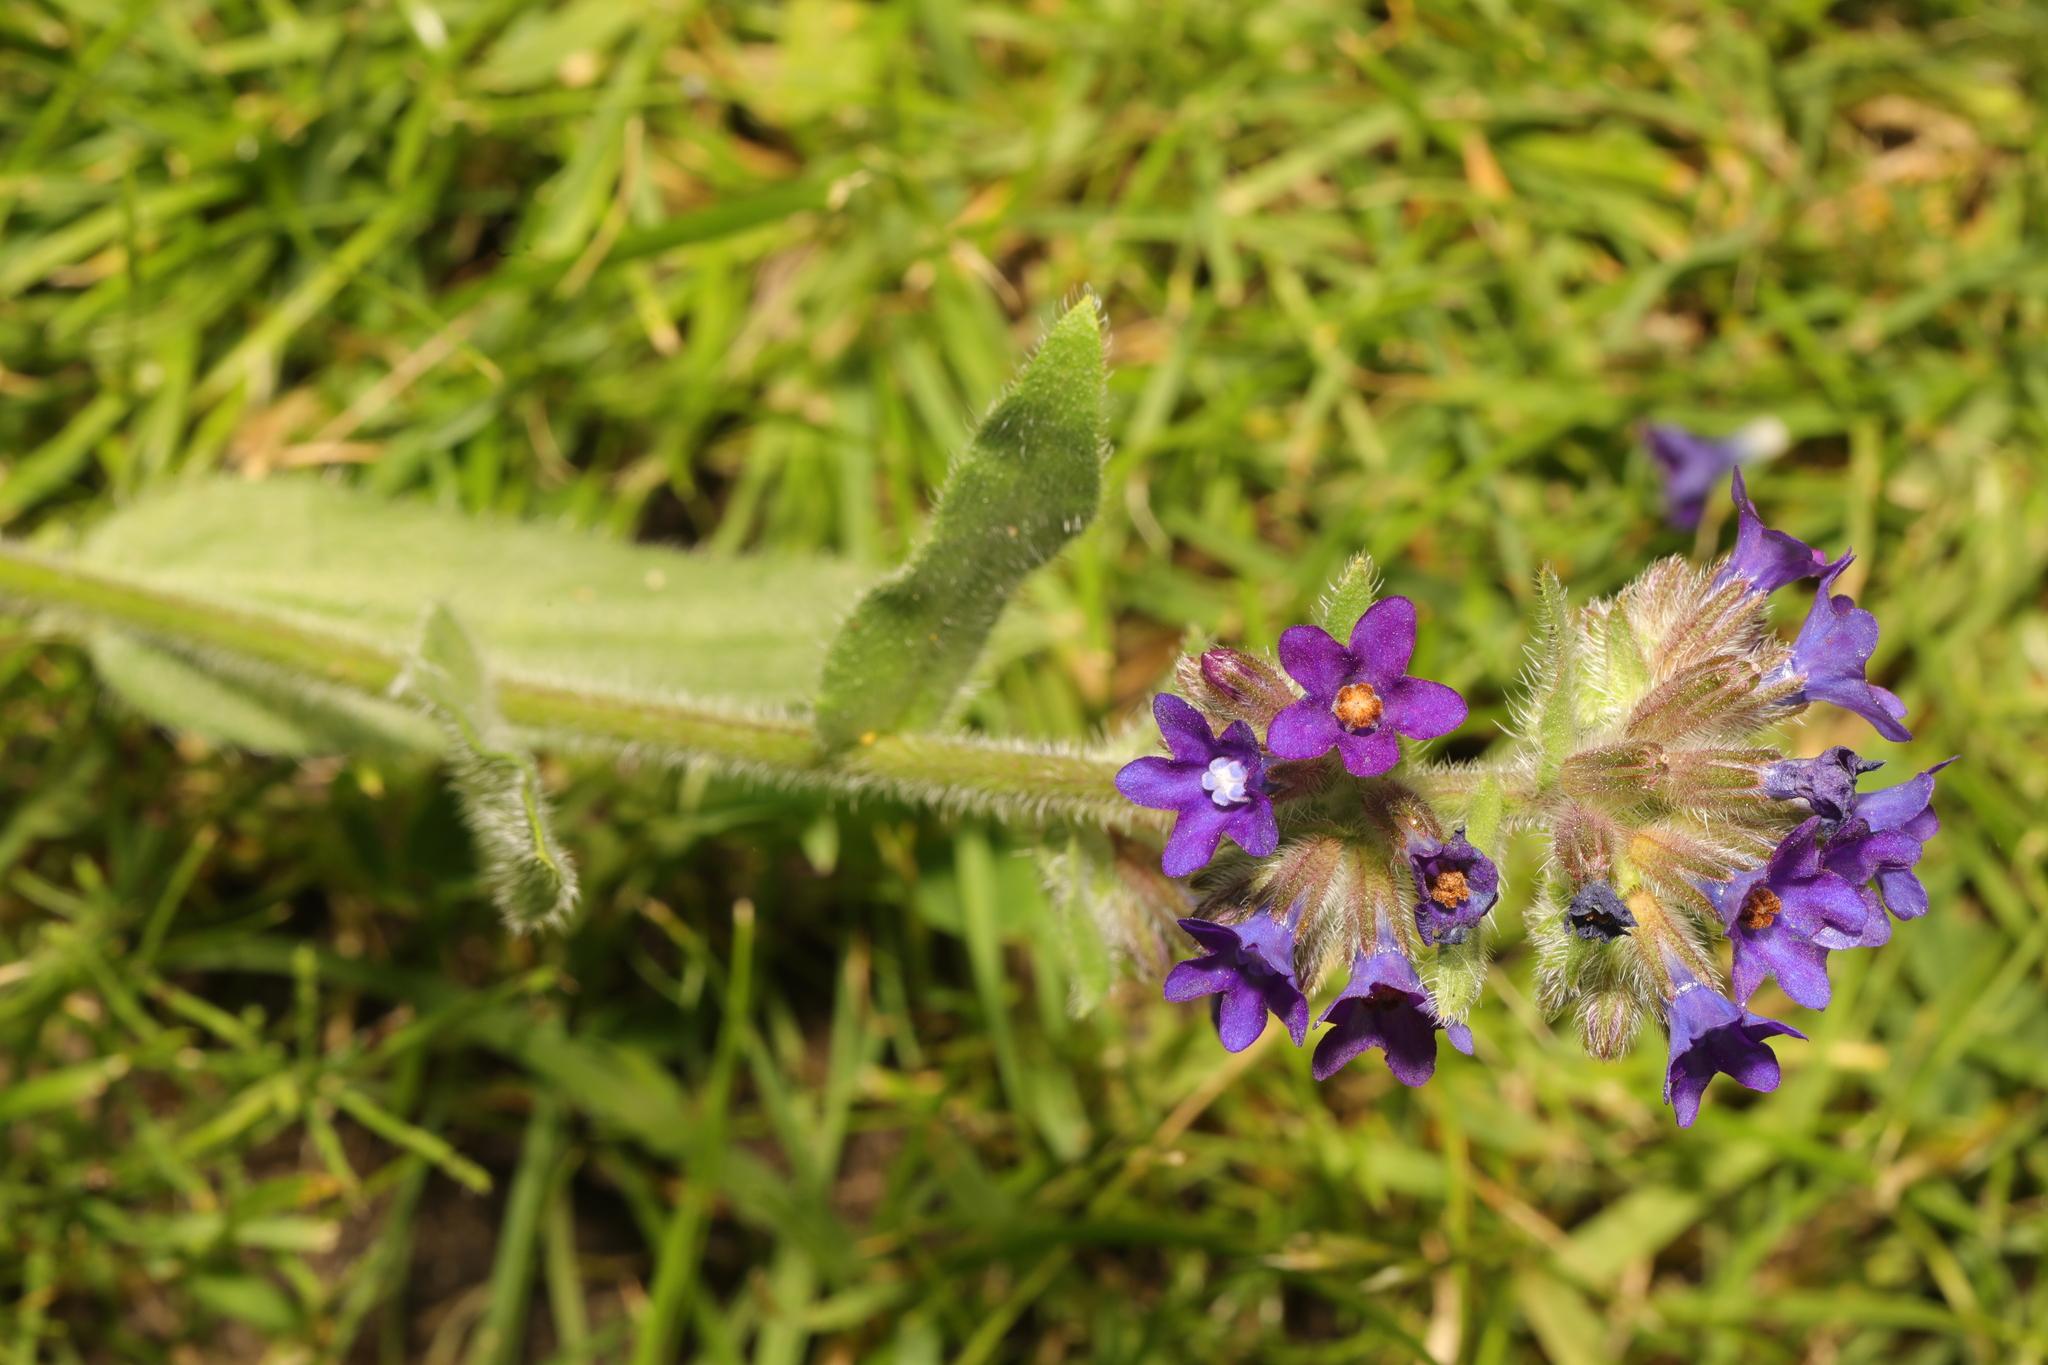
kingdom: Plantae
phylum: Tracheophyta
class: Magnoliopsida
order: Boraginales
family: Boraginaceae
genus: Anchusa
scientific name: Anchusa officinalis
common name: Alkanet
